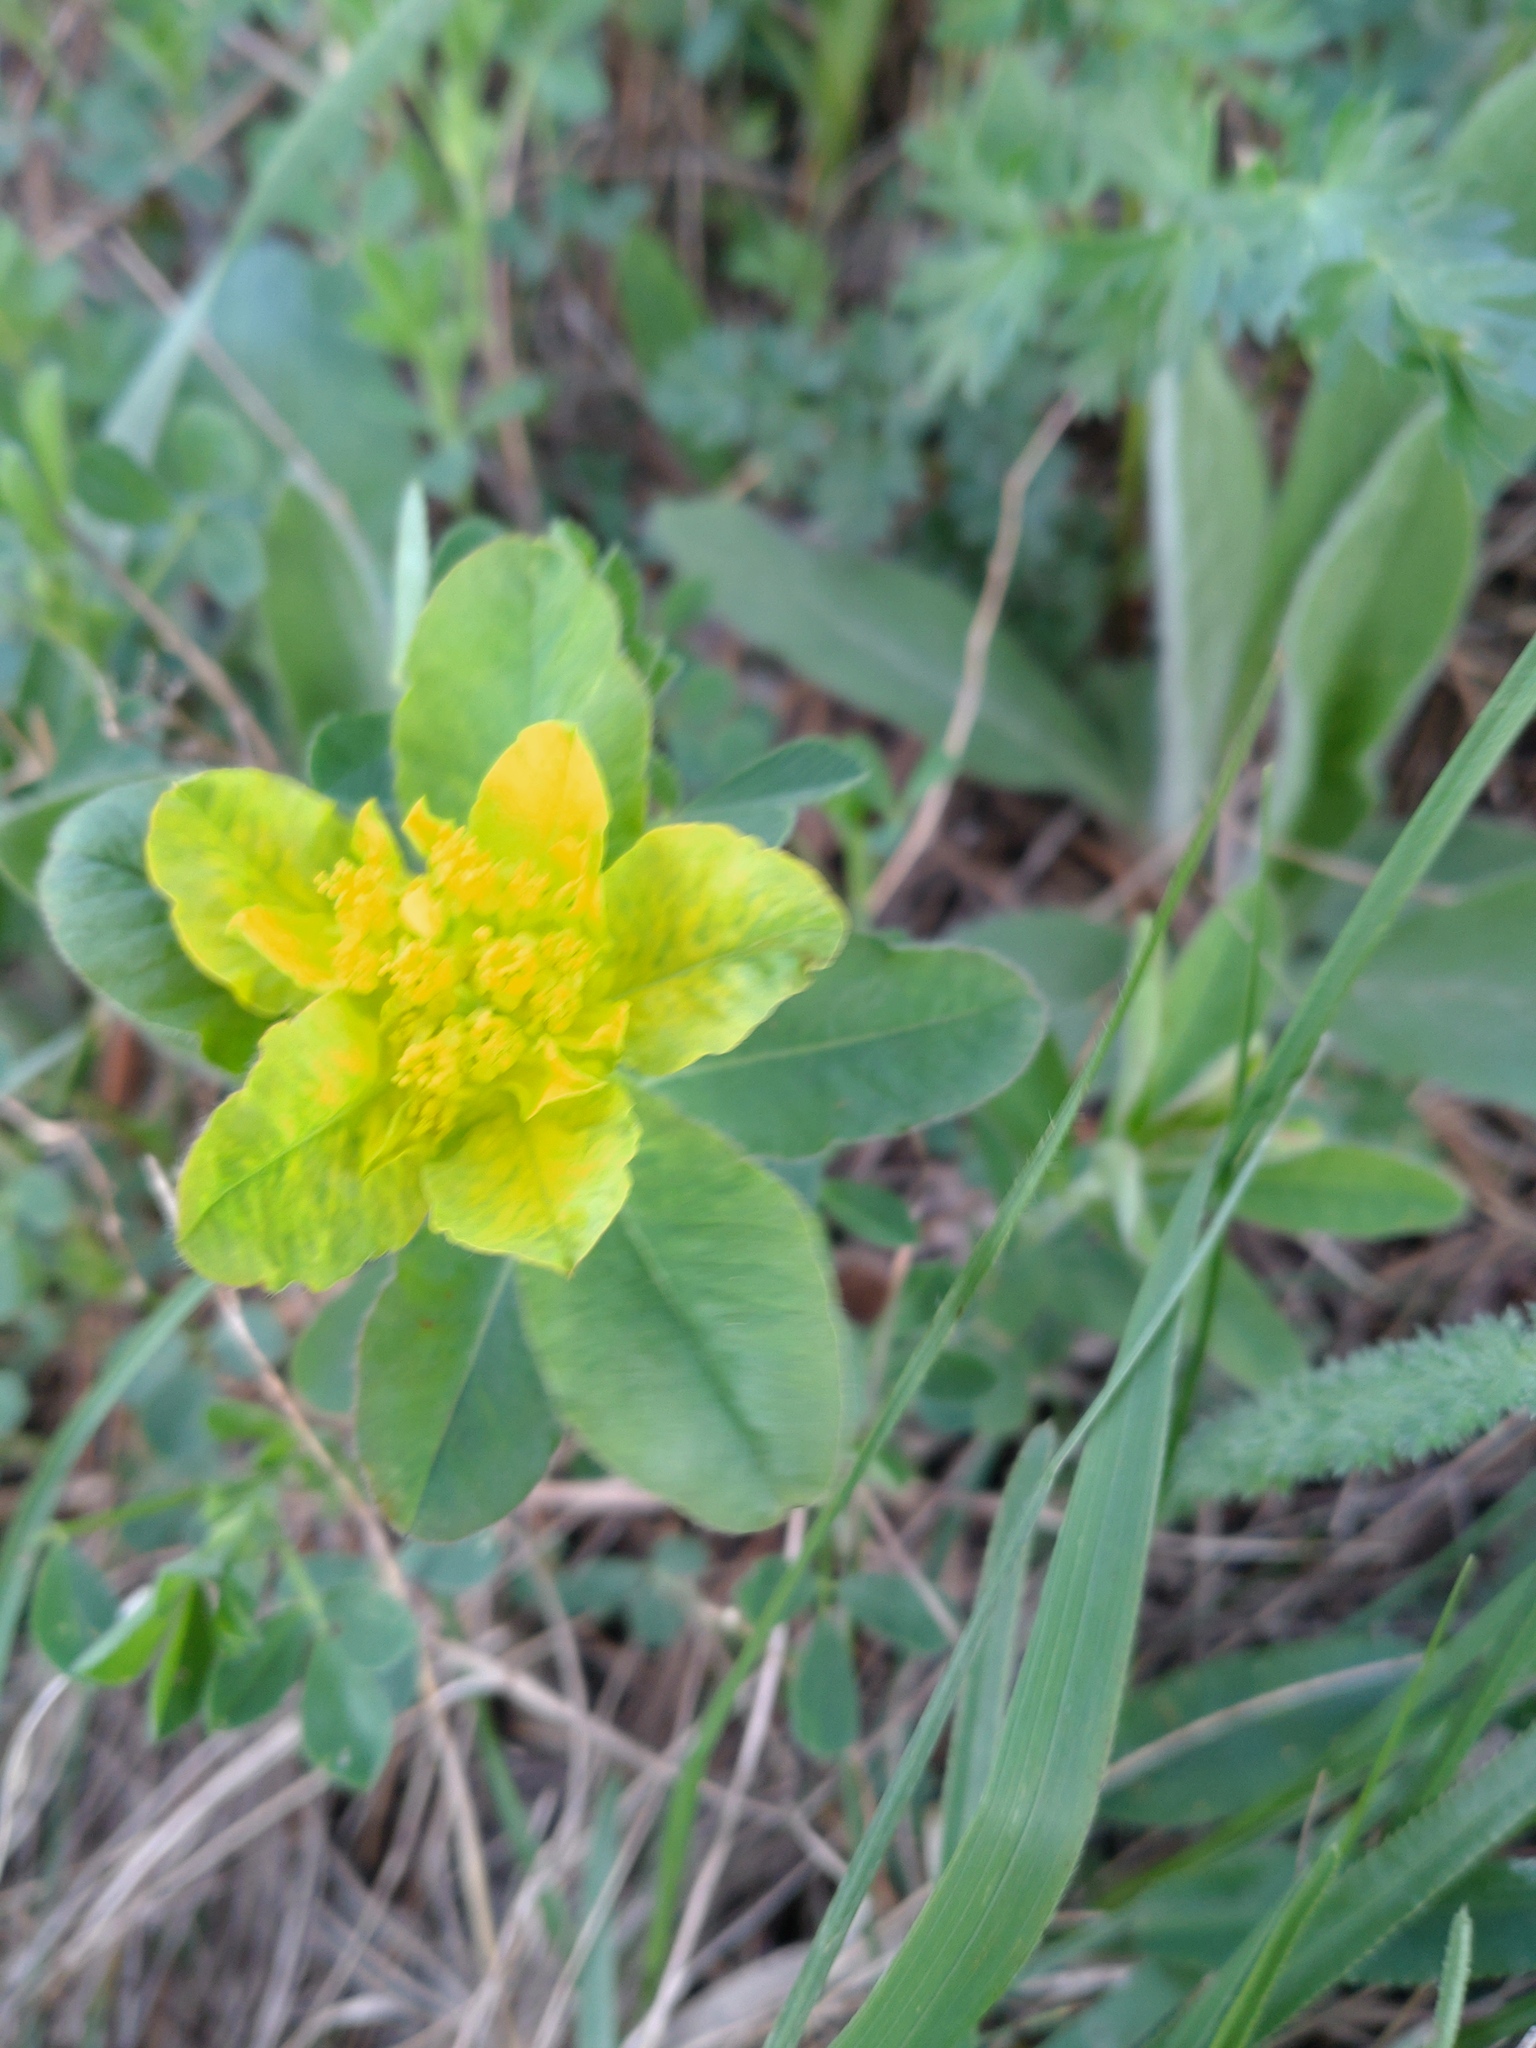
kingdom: Plantae
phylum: Tracheophyta
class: Magnoliopsida
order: Malpighiales
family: Euphorbiaceae
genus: Euphorbia
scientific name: Euphorbia epithymoides
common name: Cushion spurge
